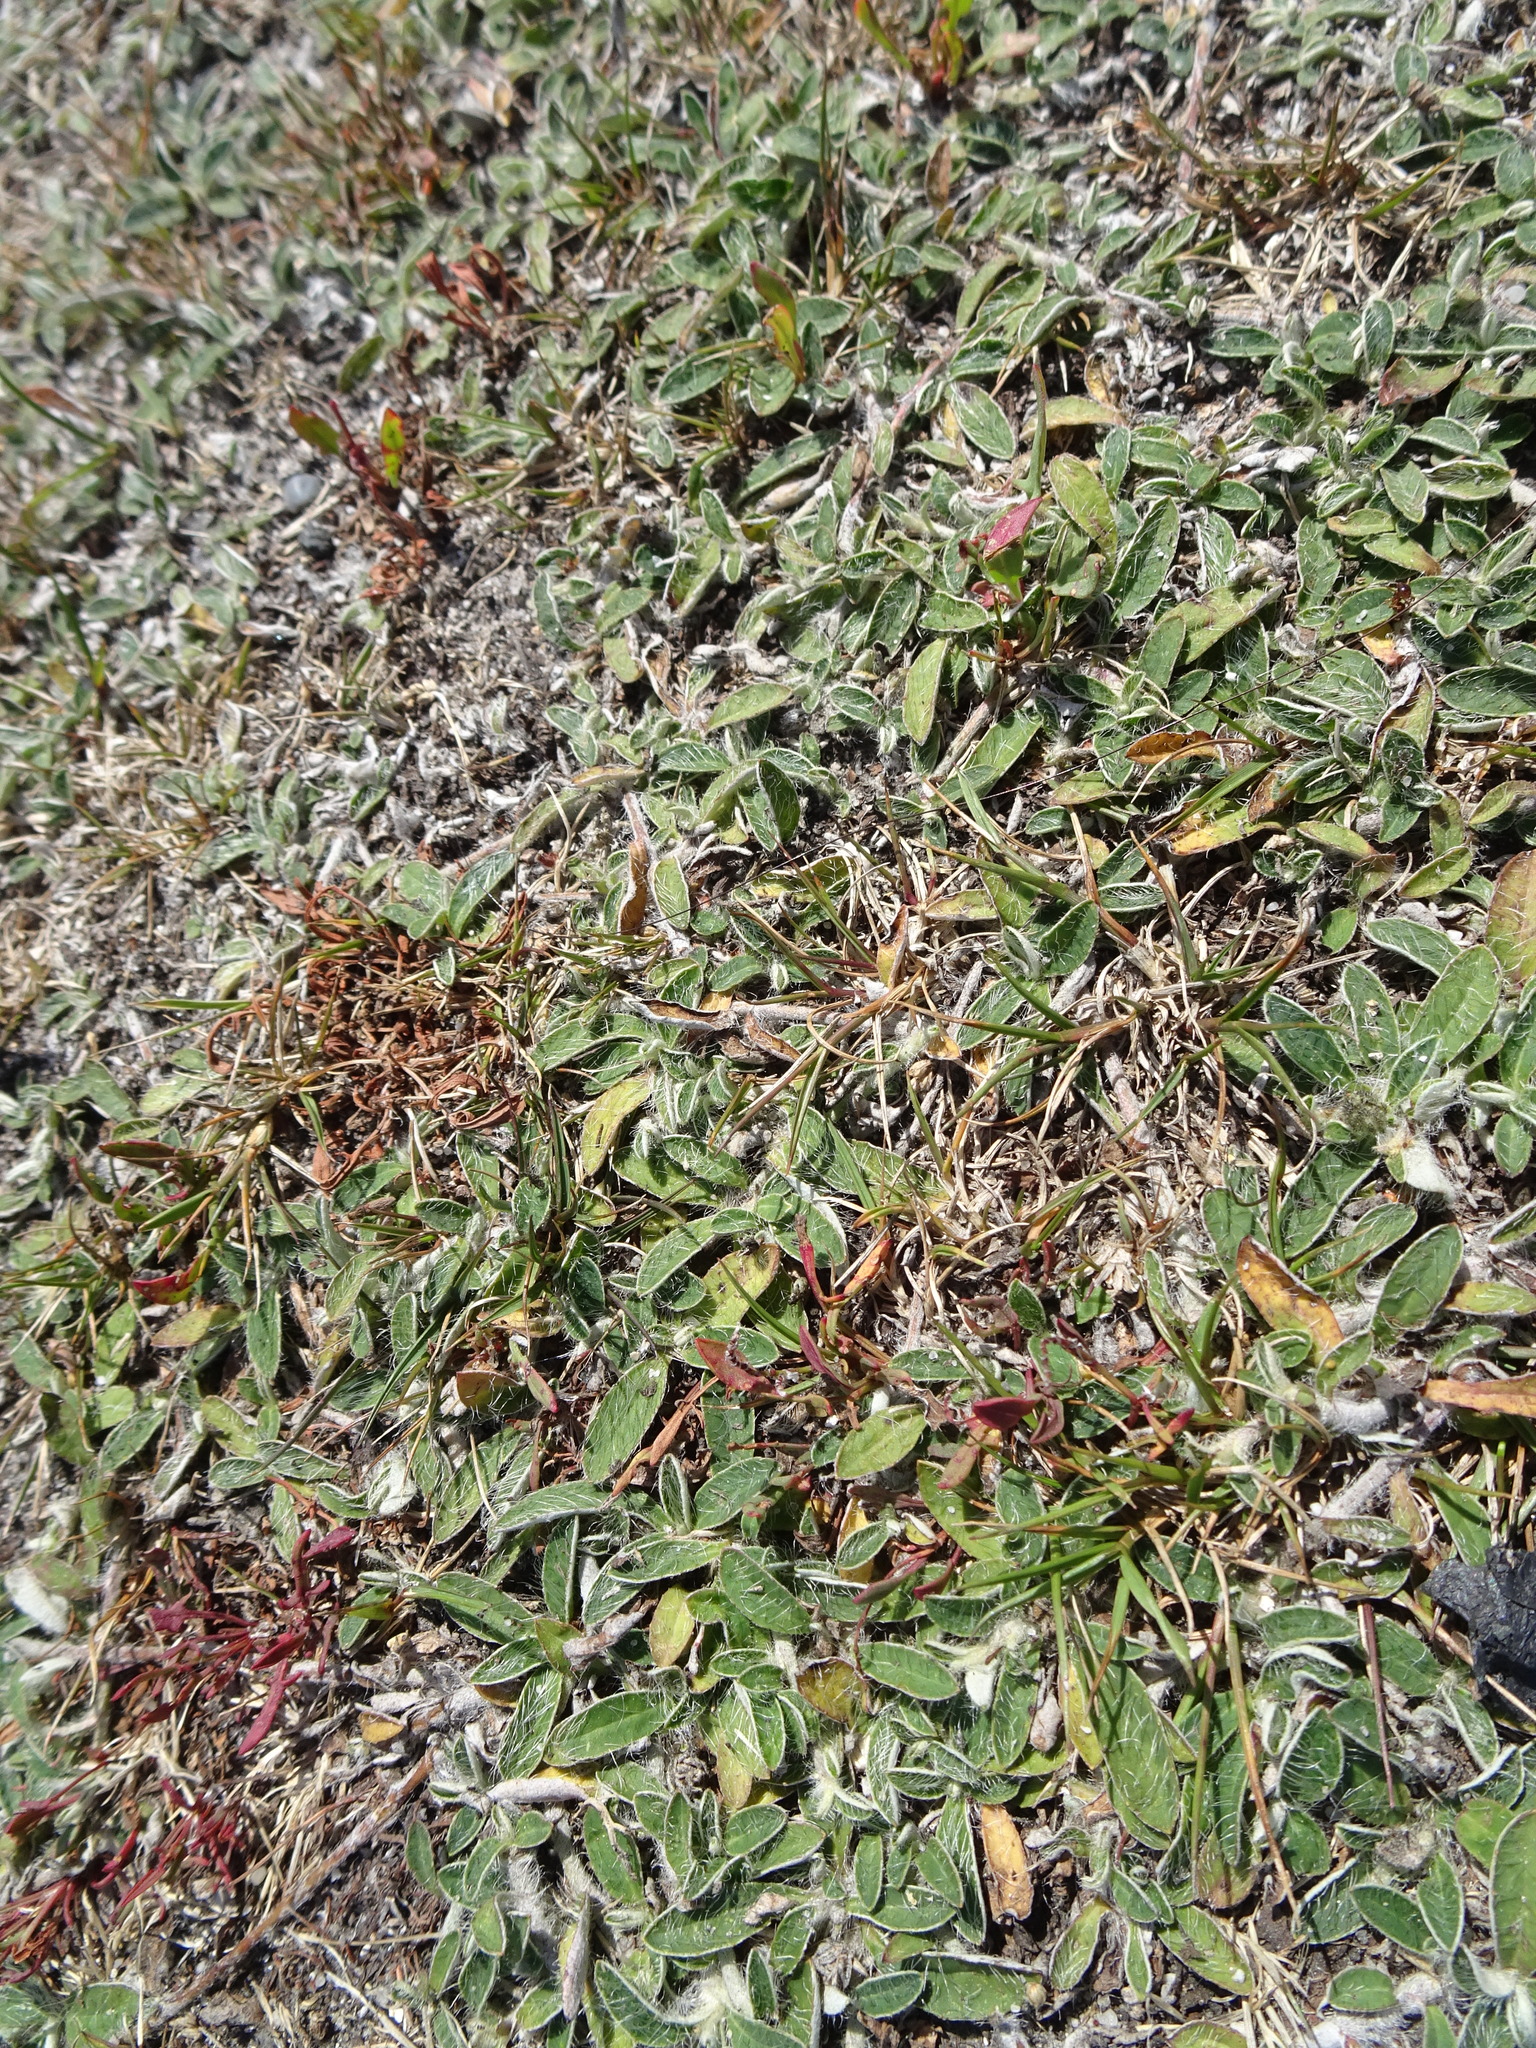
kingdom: Plantae
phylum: Tracheophyta
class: Magnoliopsida
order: Asterales
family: Asteraceae
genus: Pilosella
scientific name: Pilosella officinarum
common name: Mouse-ear hawkweed
